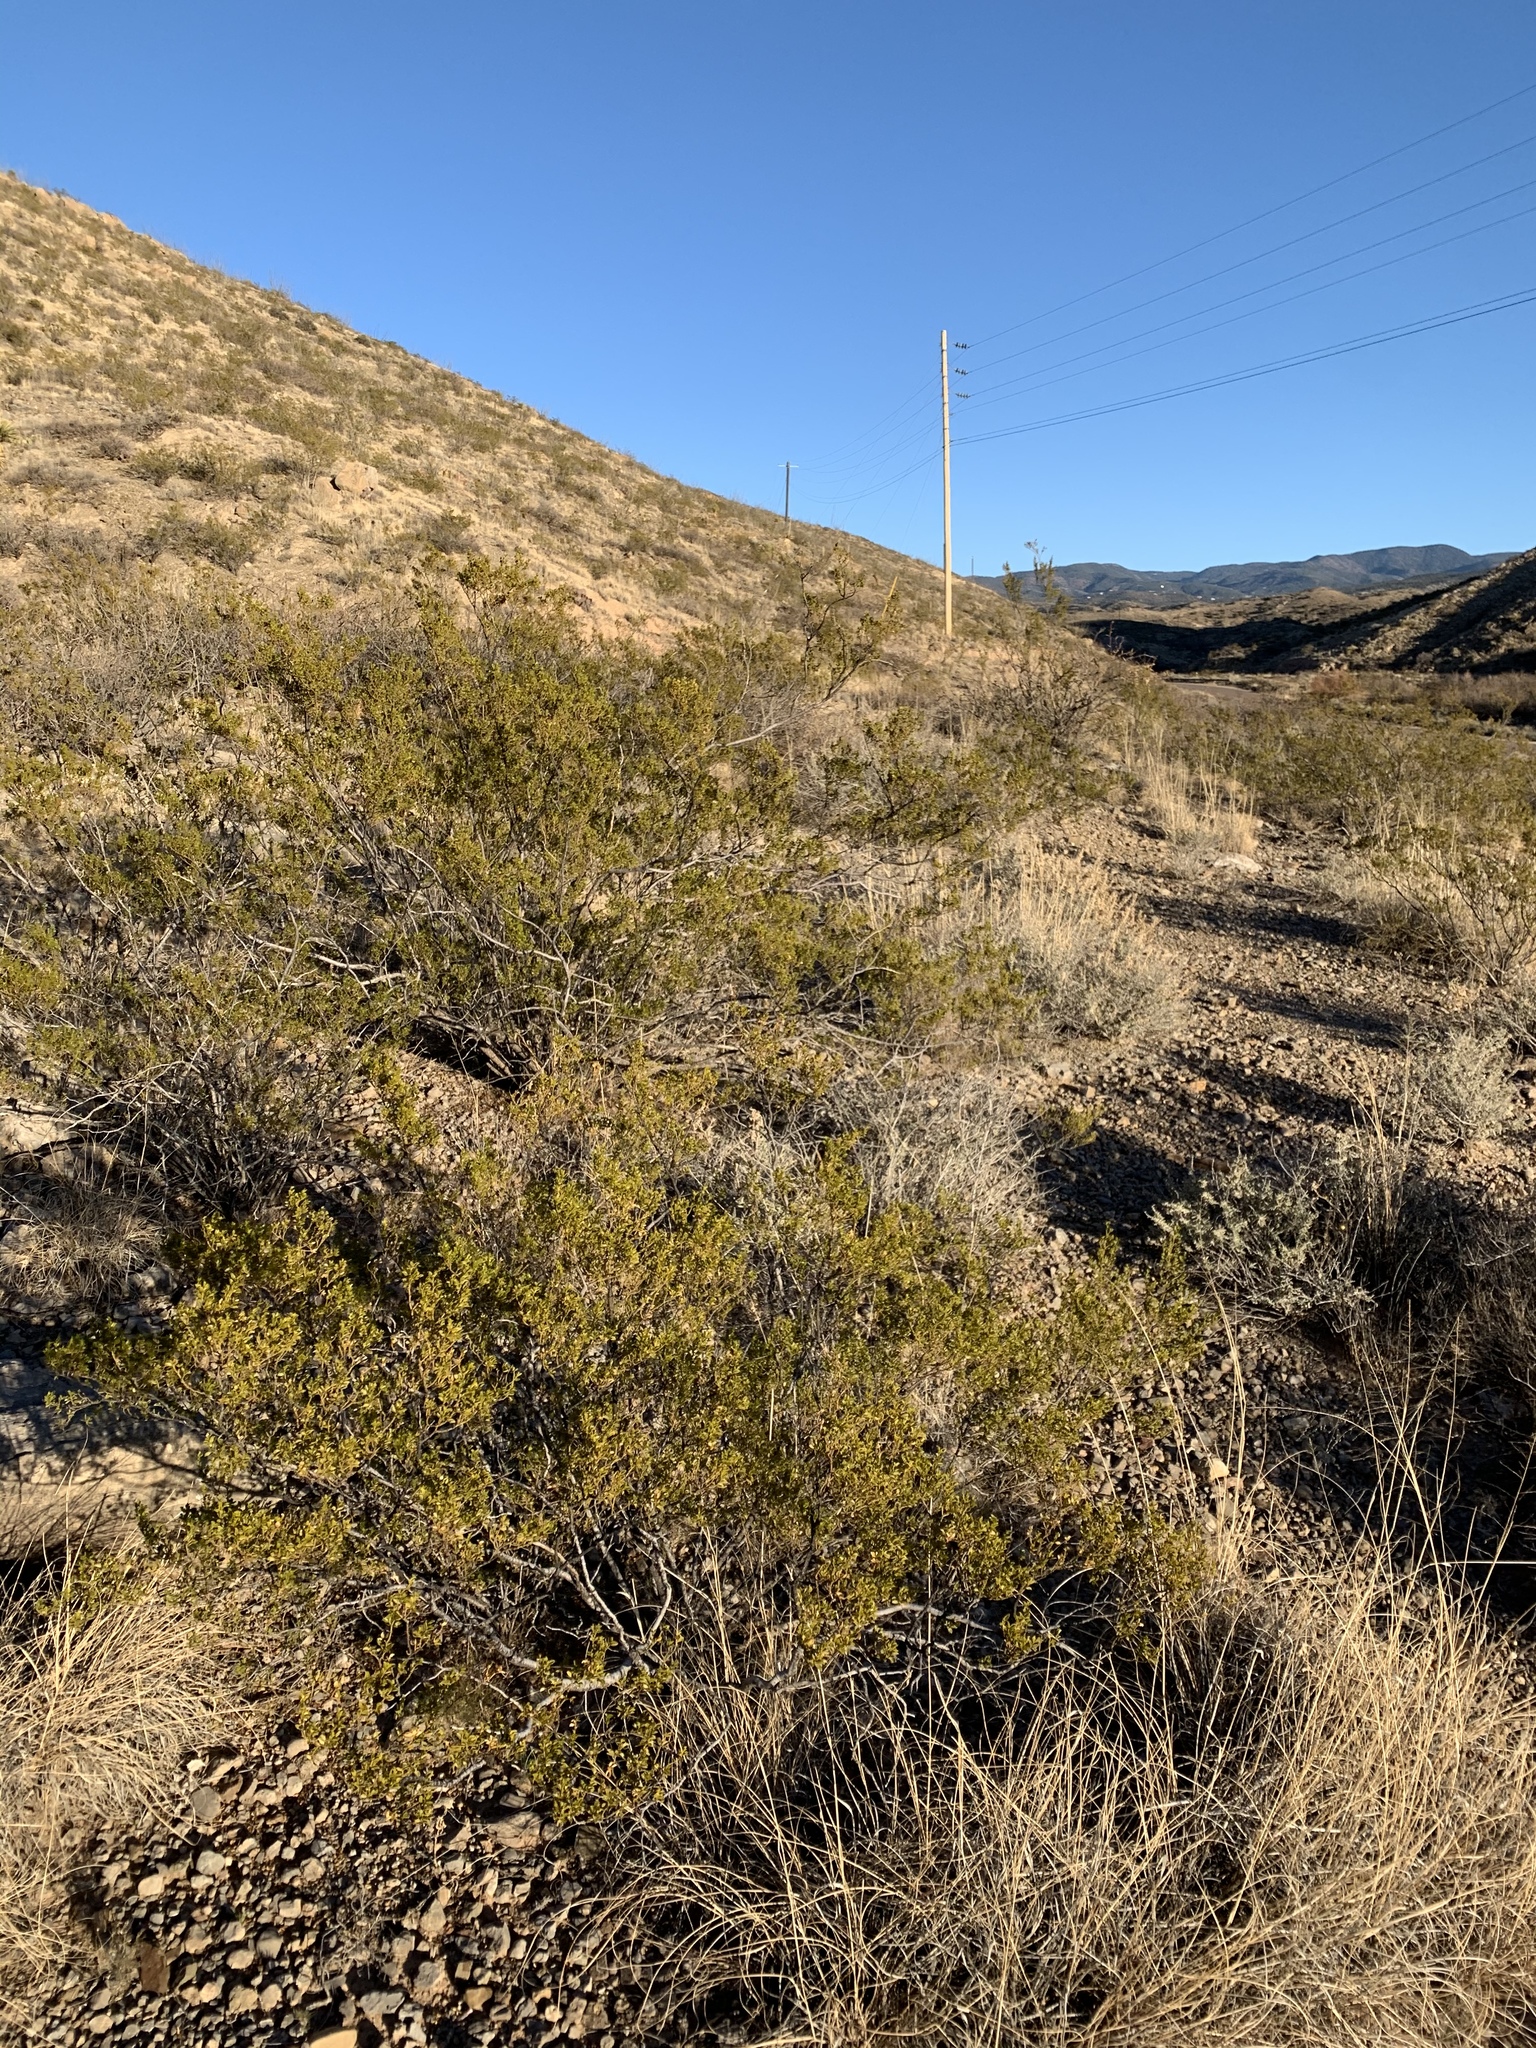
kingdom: Plantae
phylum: Tracheophyta
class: Magnoliopsida
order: Zygophyllales
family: Zygophyllaceae
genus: Larrea
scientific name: Larrea tridentata
